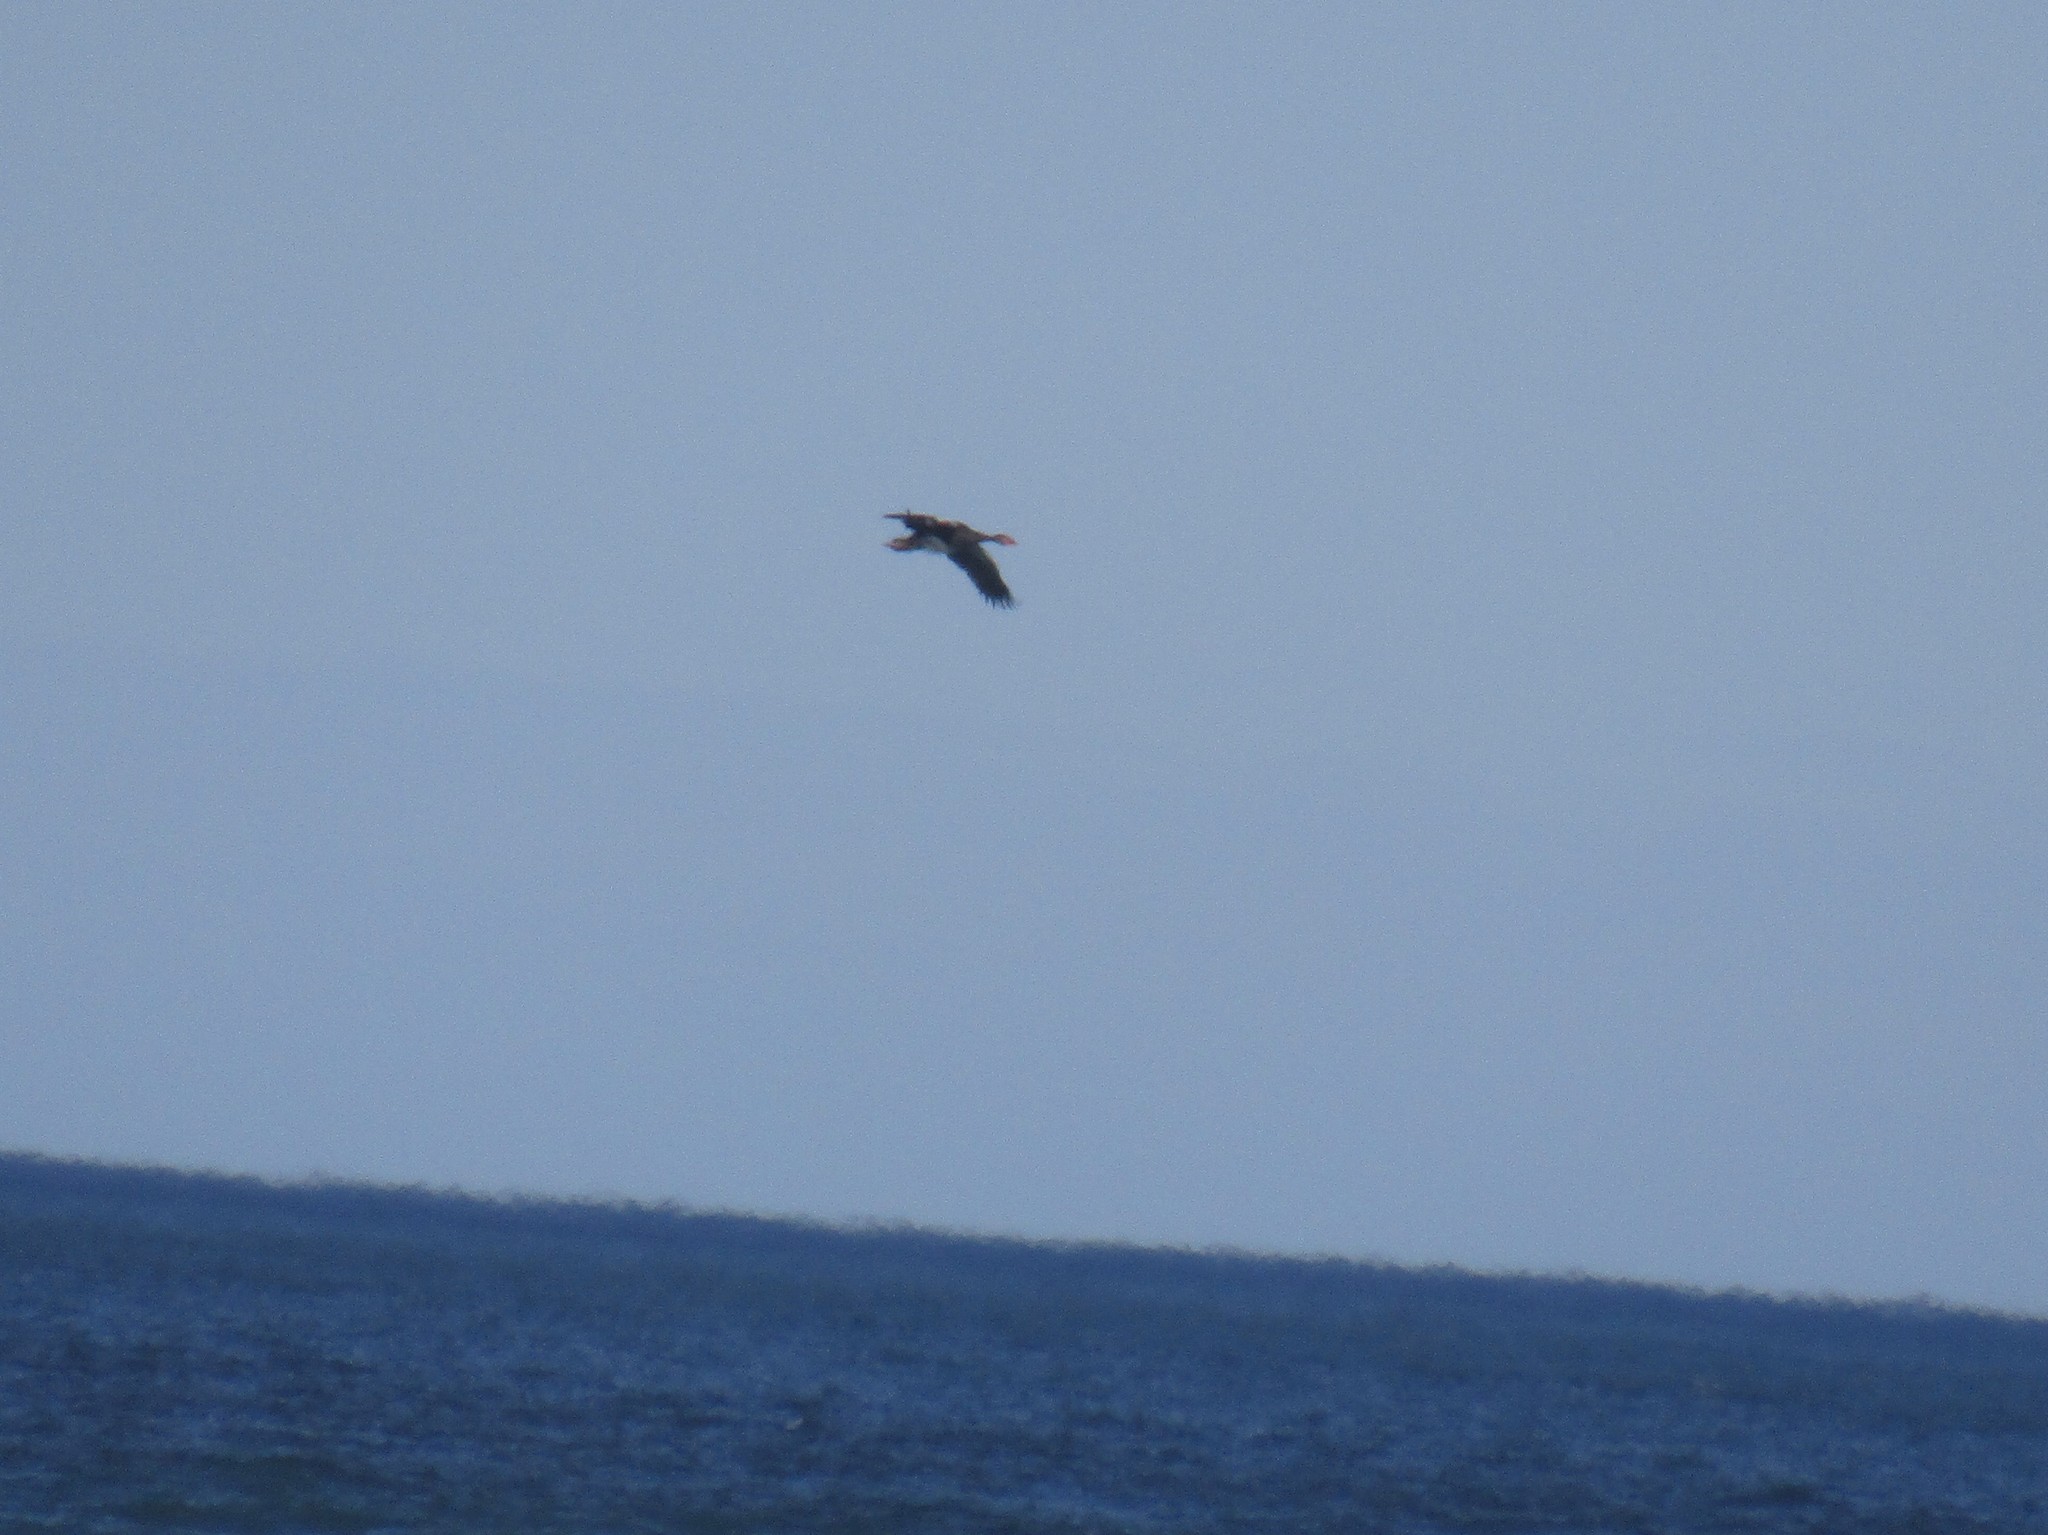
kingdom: Animalia
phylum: Chordata
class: Aves
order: Anseriformes
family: Anatidae
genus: Plectropterus
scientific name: Plectropterus gambensis
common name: Spur-winged goose
